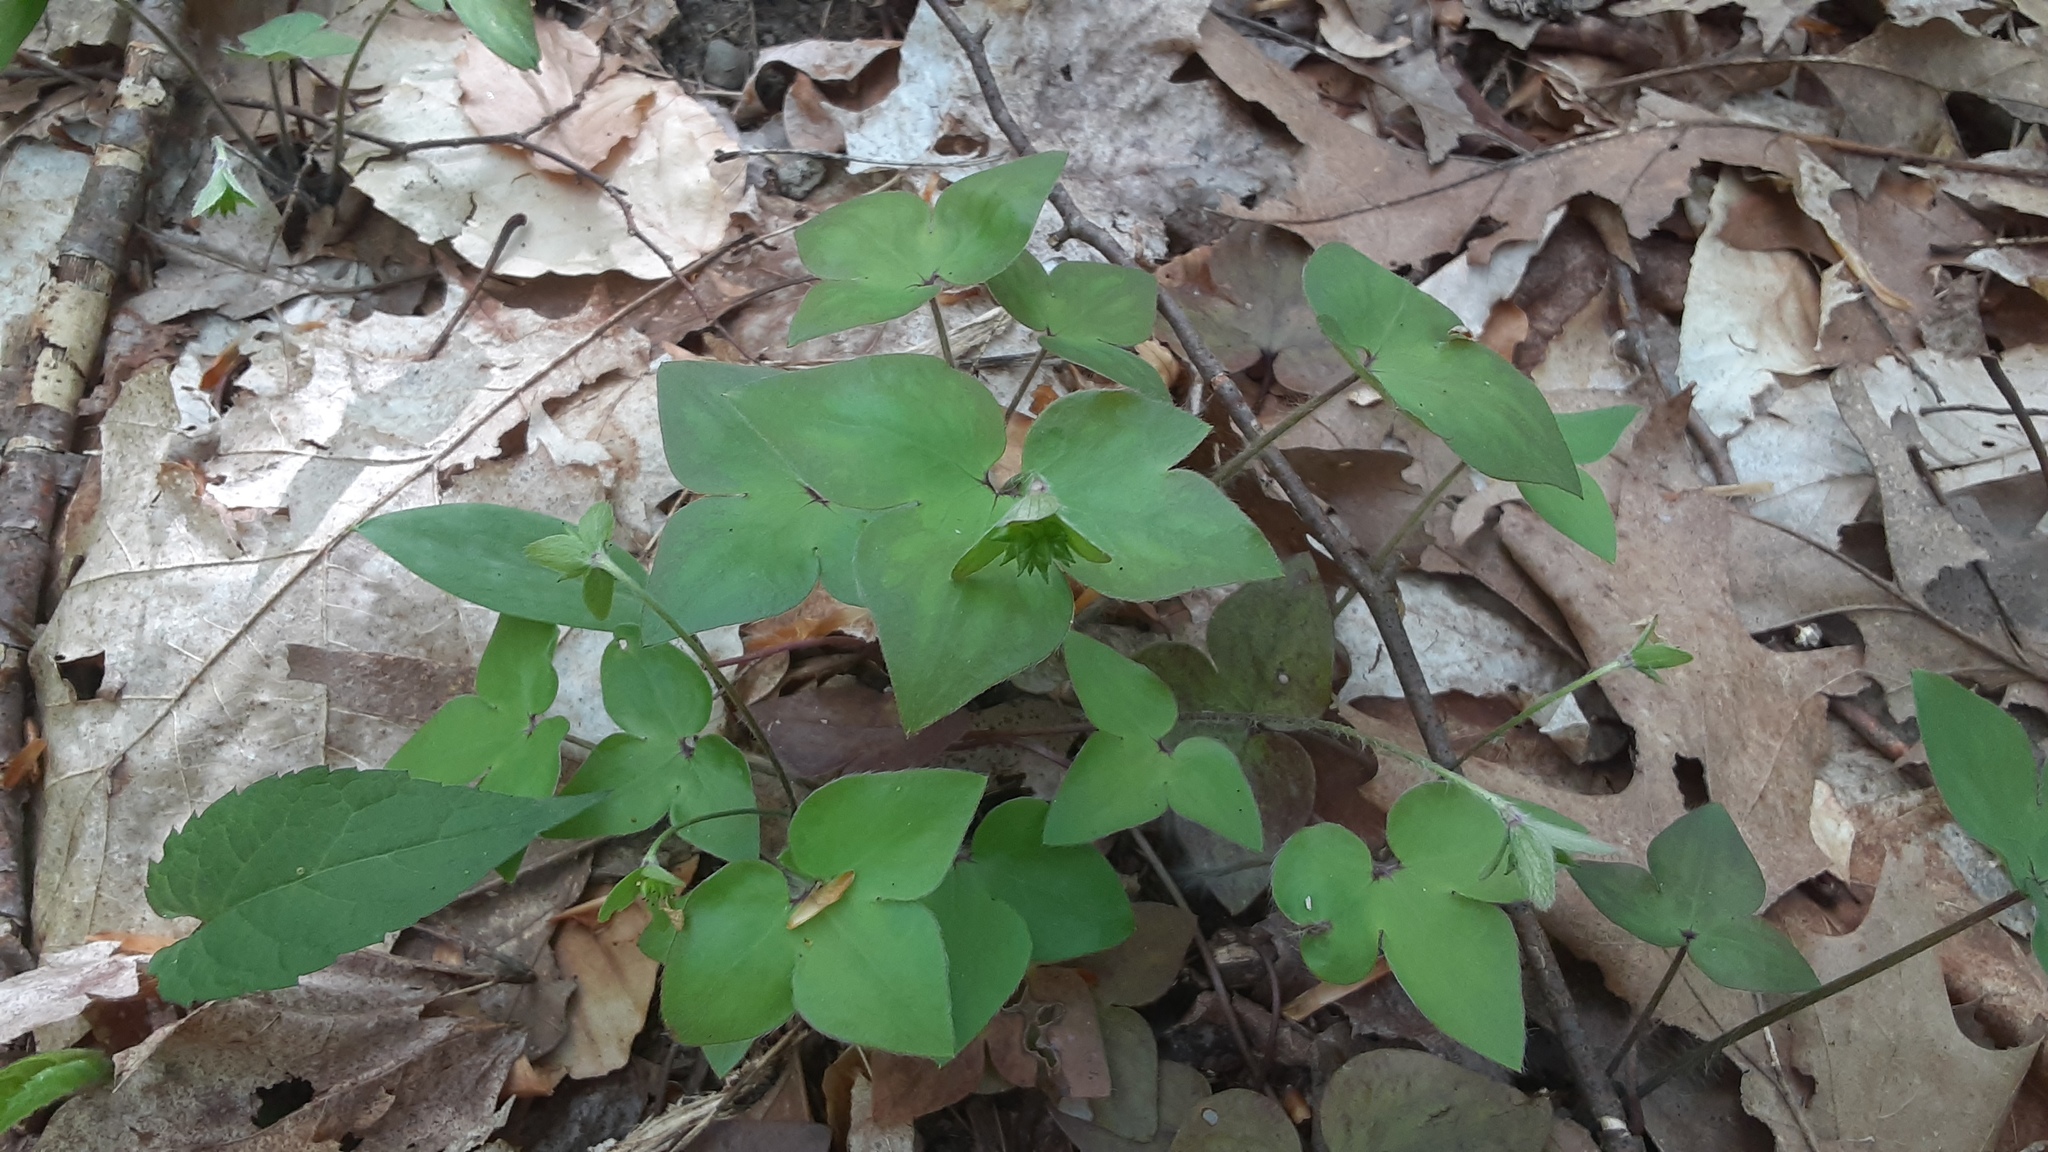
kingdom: Plantae
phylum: Tracheophyta
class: Magnoliopsida
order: Ranunculales
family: Ranunculaceae
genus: Hepatica
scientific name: Hepatica acutiloba
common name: Sharp-lobed hepatica
